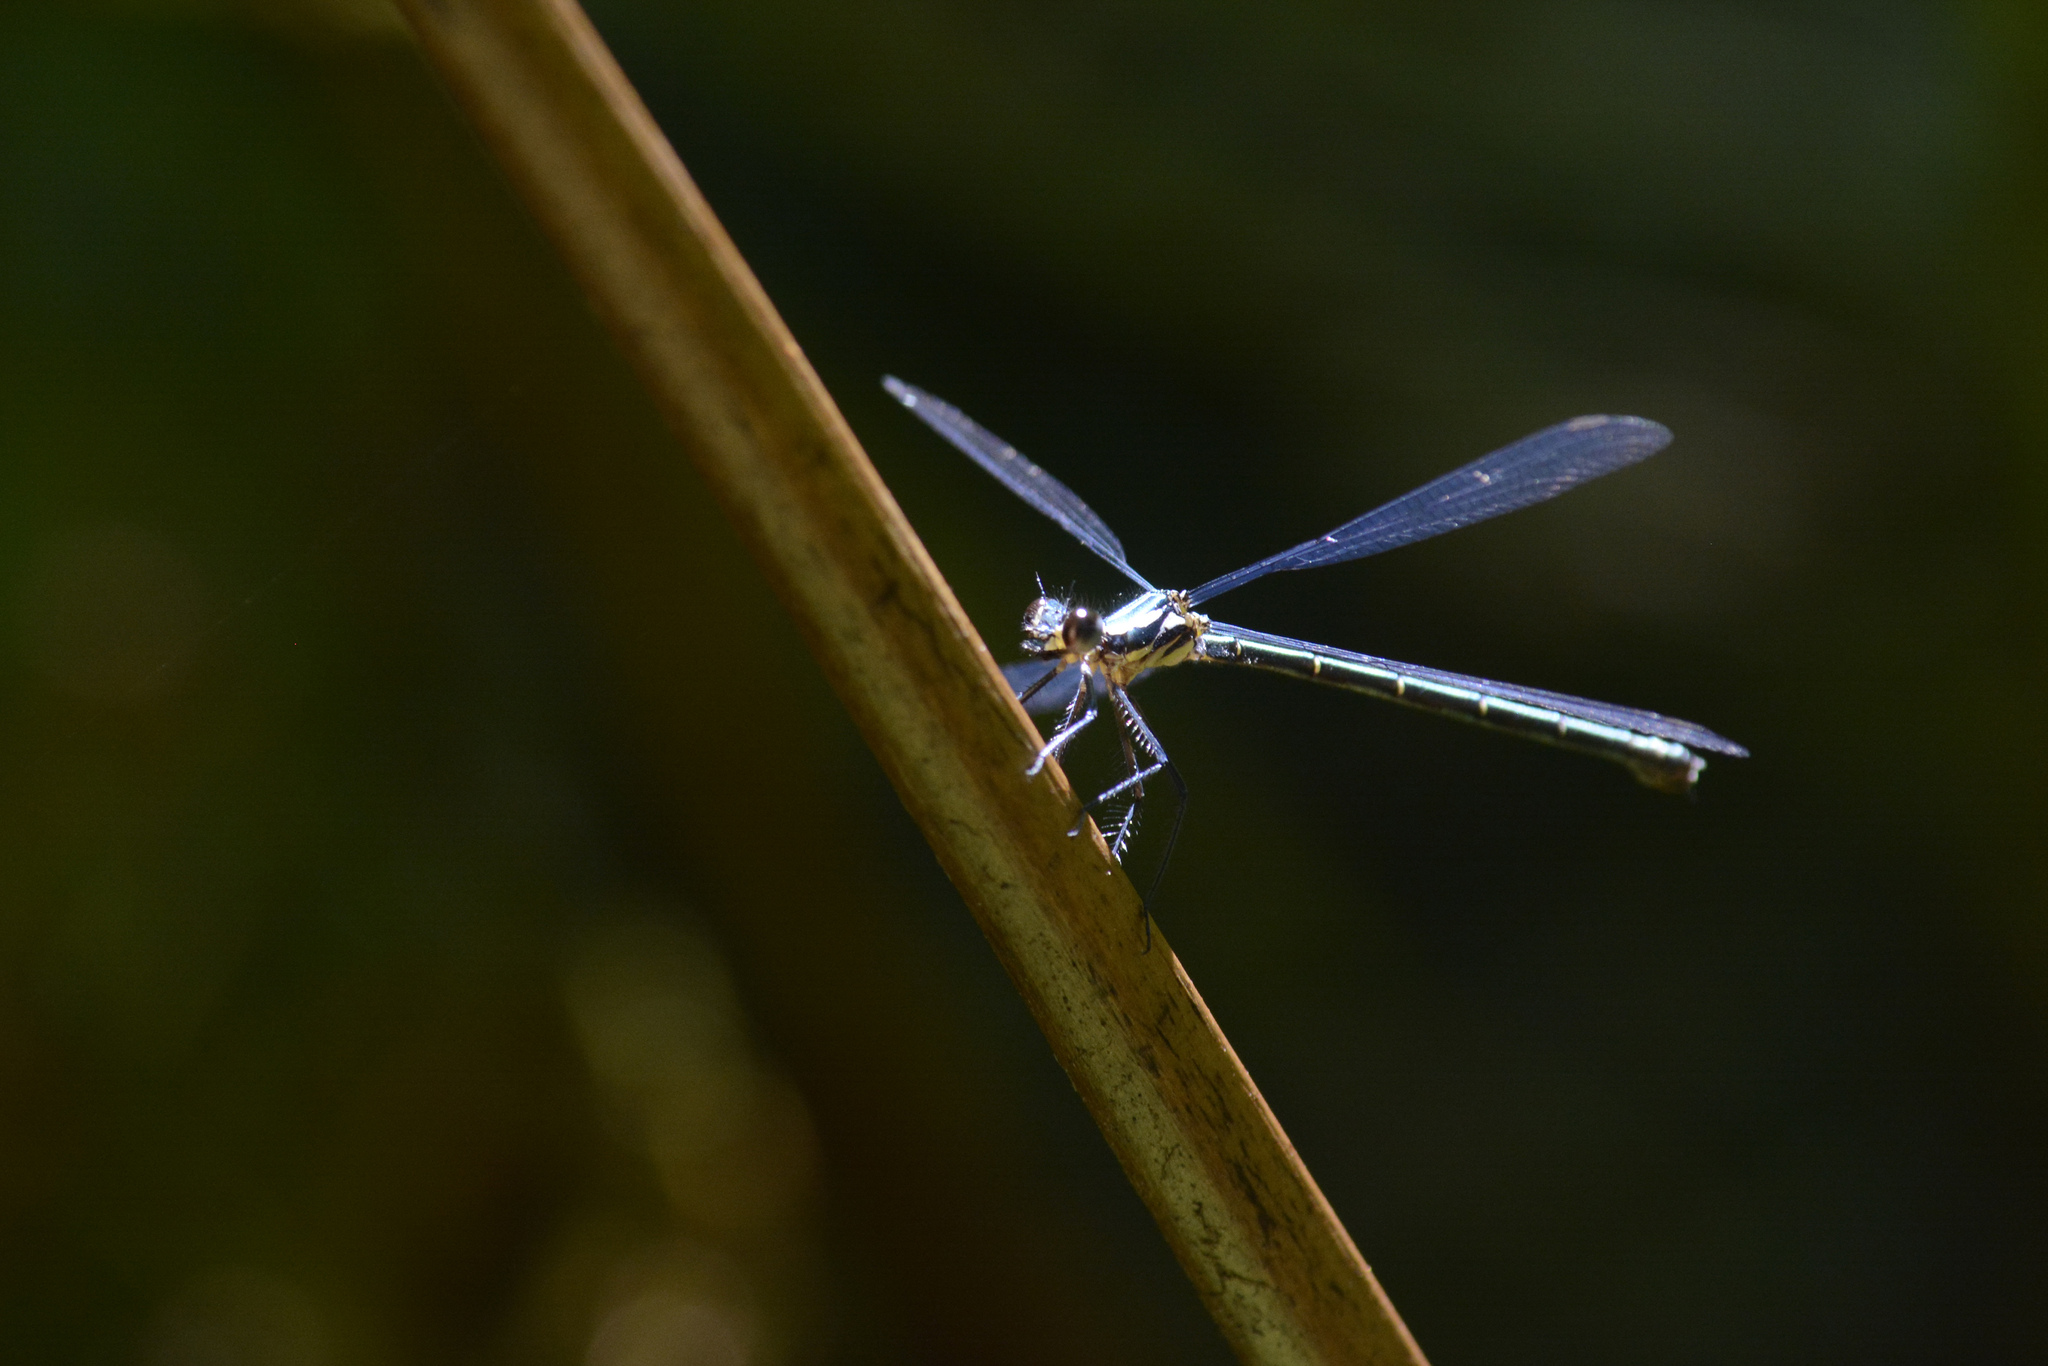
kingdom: Animalia
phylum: Arthropoda
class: Insecta
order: Odonata
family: Argiolestidae
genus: Austroargiolestes
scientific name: Austroargiolestes icteromelas
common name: Common flatwing
